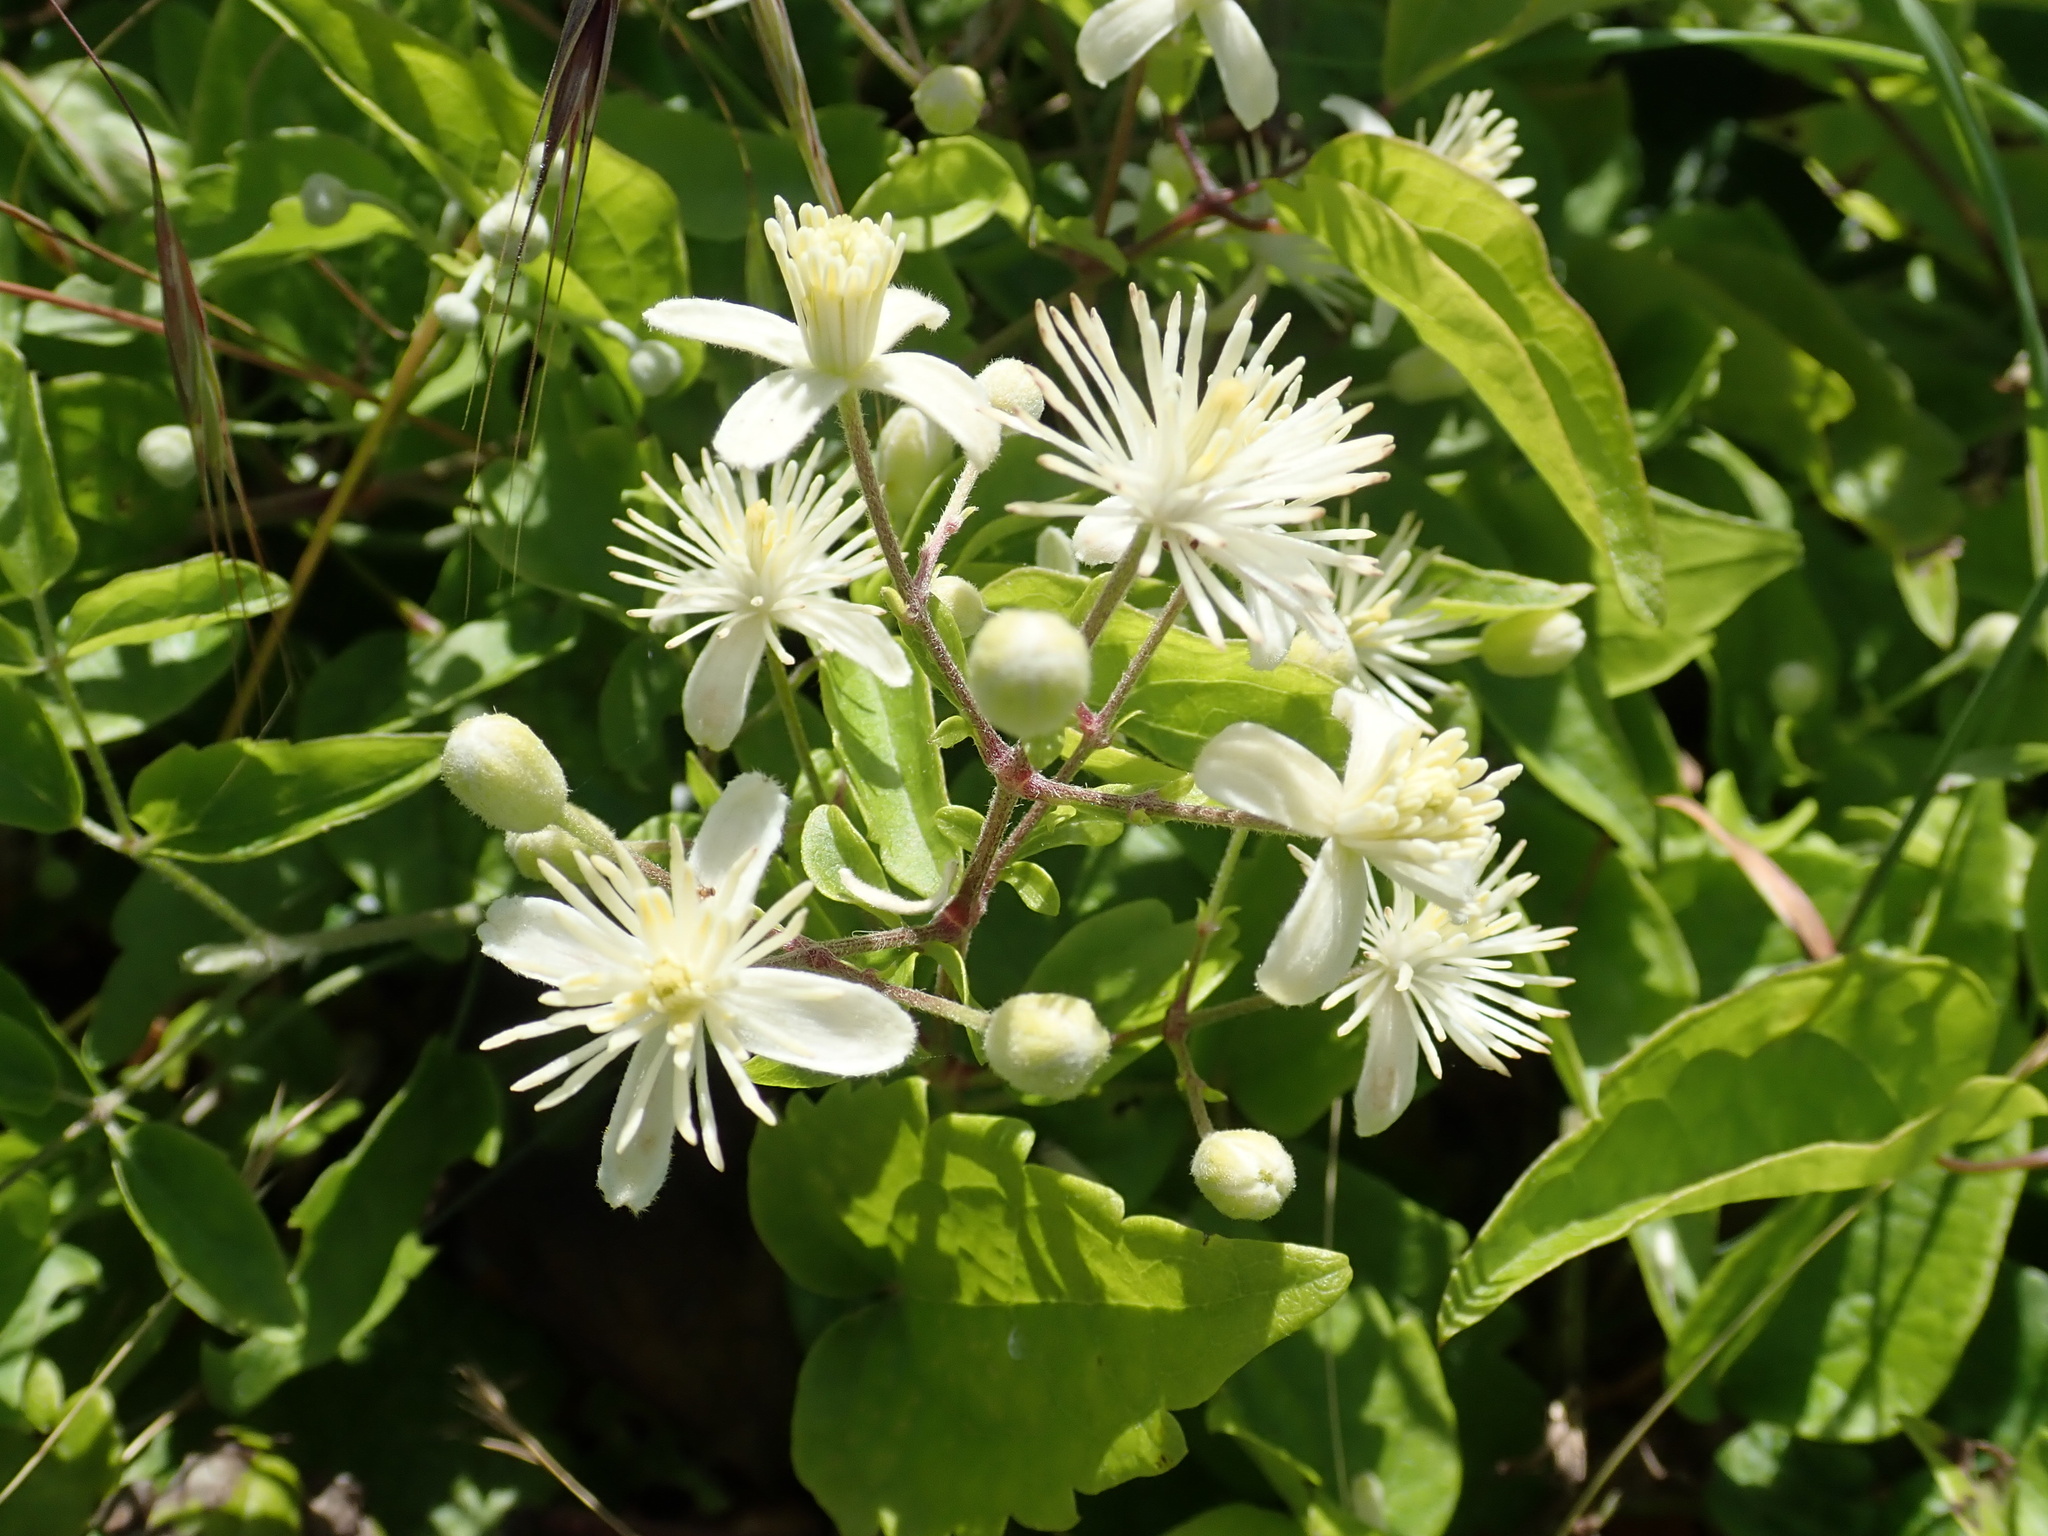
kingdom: Plantae
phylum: Tracheophyta
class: Magnoliopsida
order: Ranunculales
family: Ranunculaceae
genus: Clematis
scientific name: Clematis vitalba
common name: Evergreen clematis
